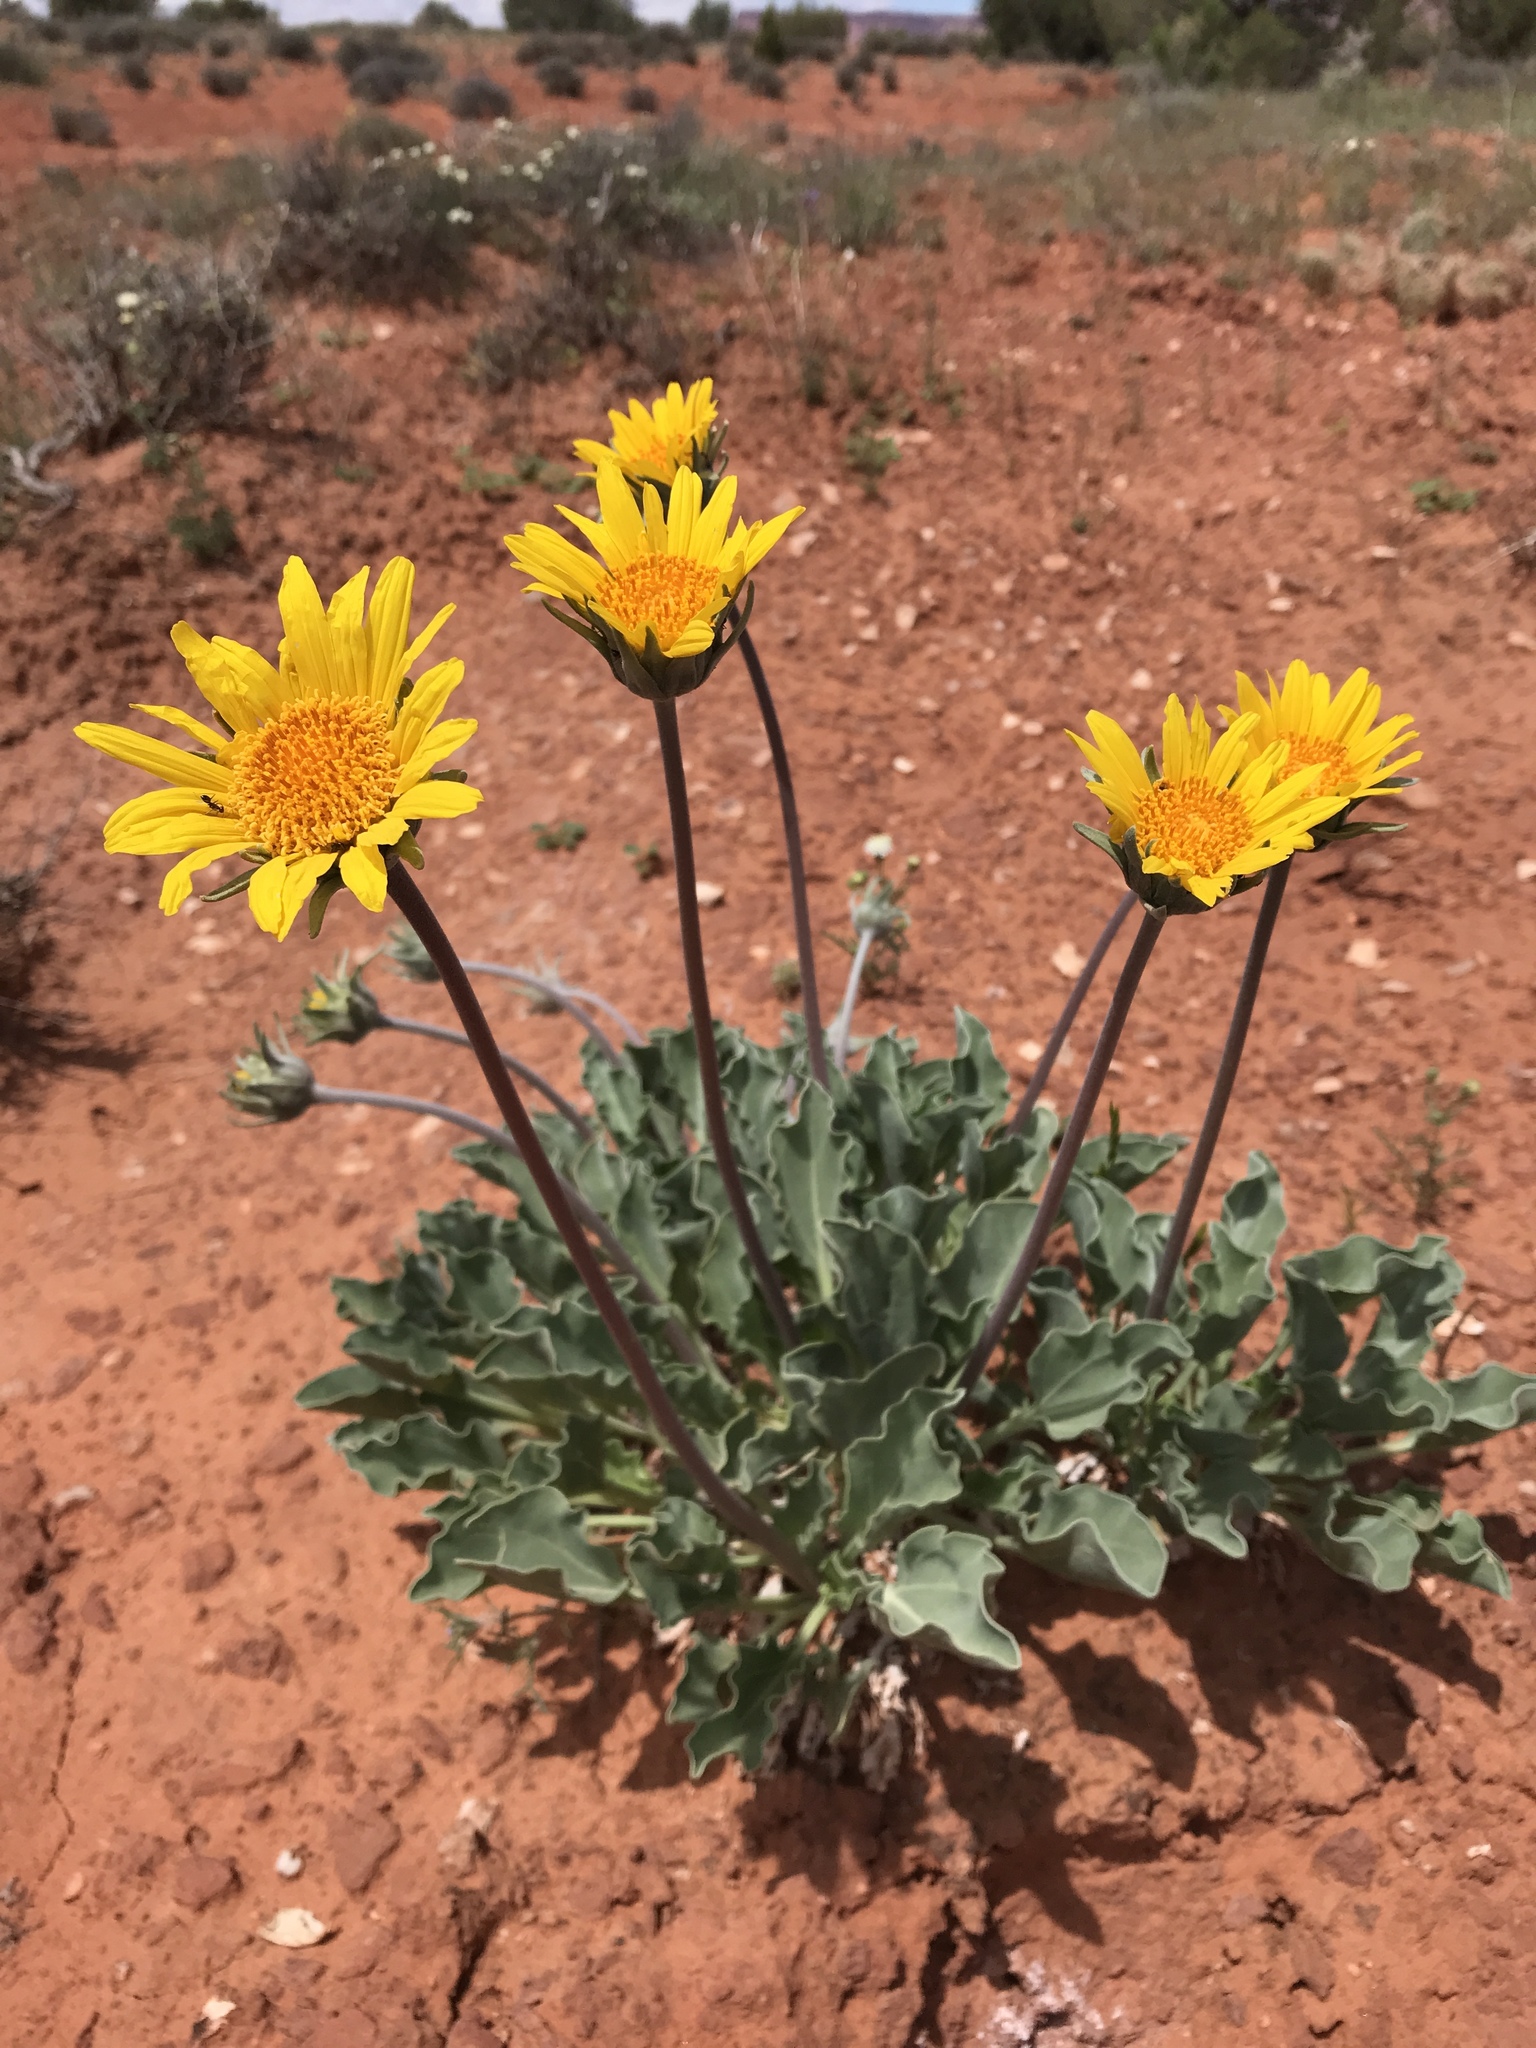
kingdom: Plantae
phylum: Tracheophyta
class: Magnoliopsida
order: Asterales
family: Asteraceae
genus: Enceliopsis
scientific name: Enceliopsis nudicaulis
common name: Naked-stem daisy
